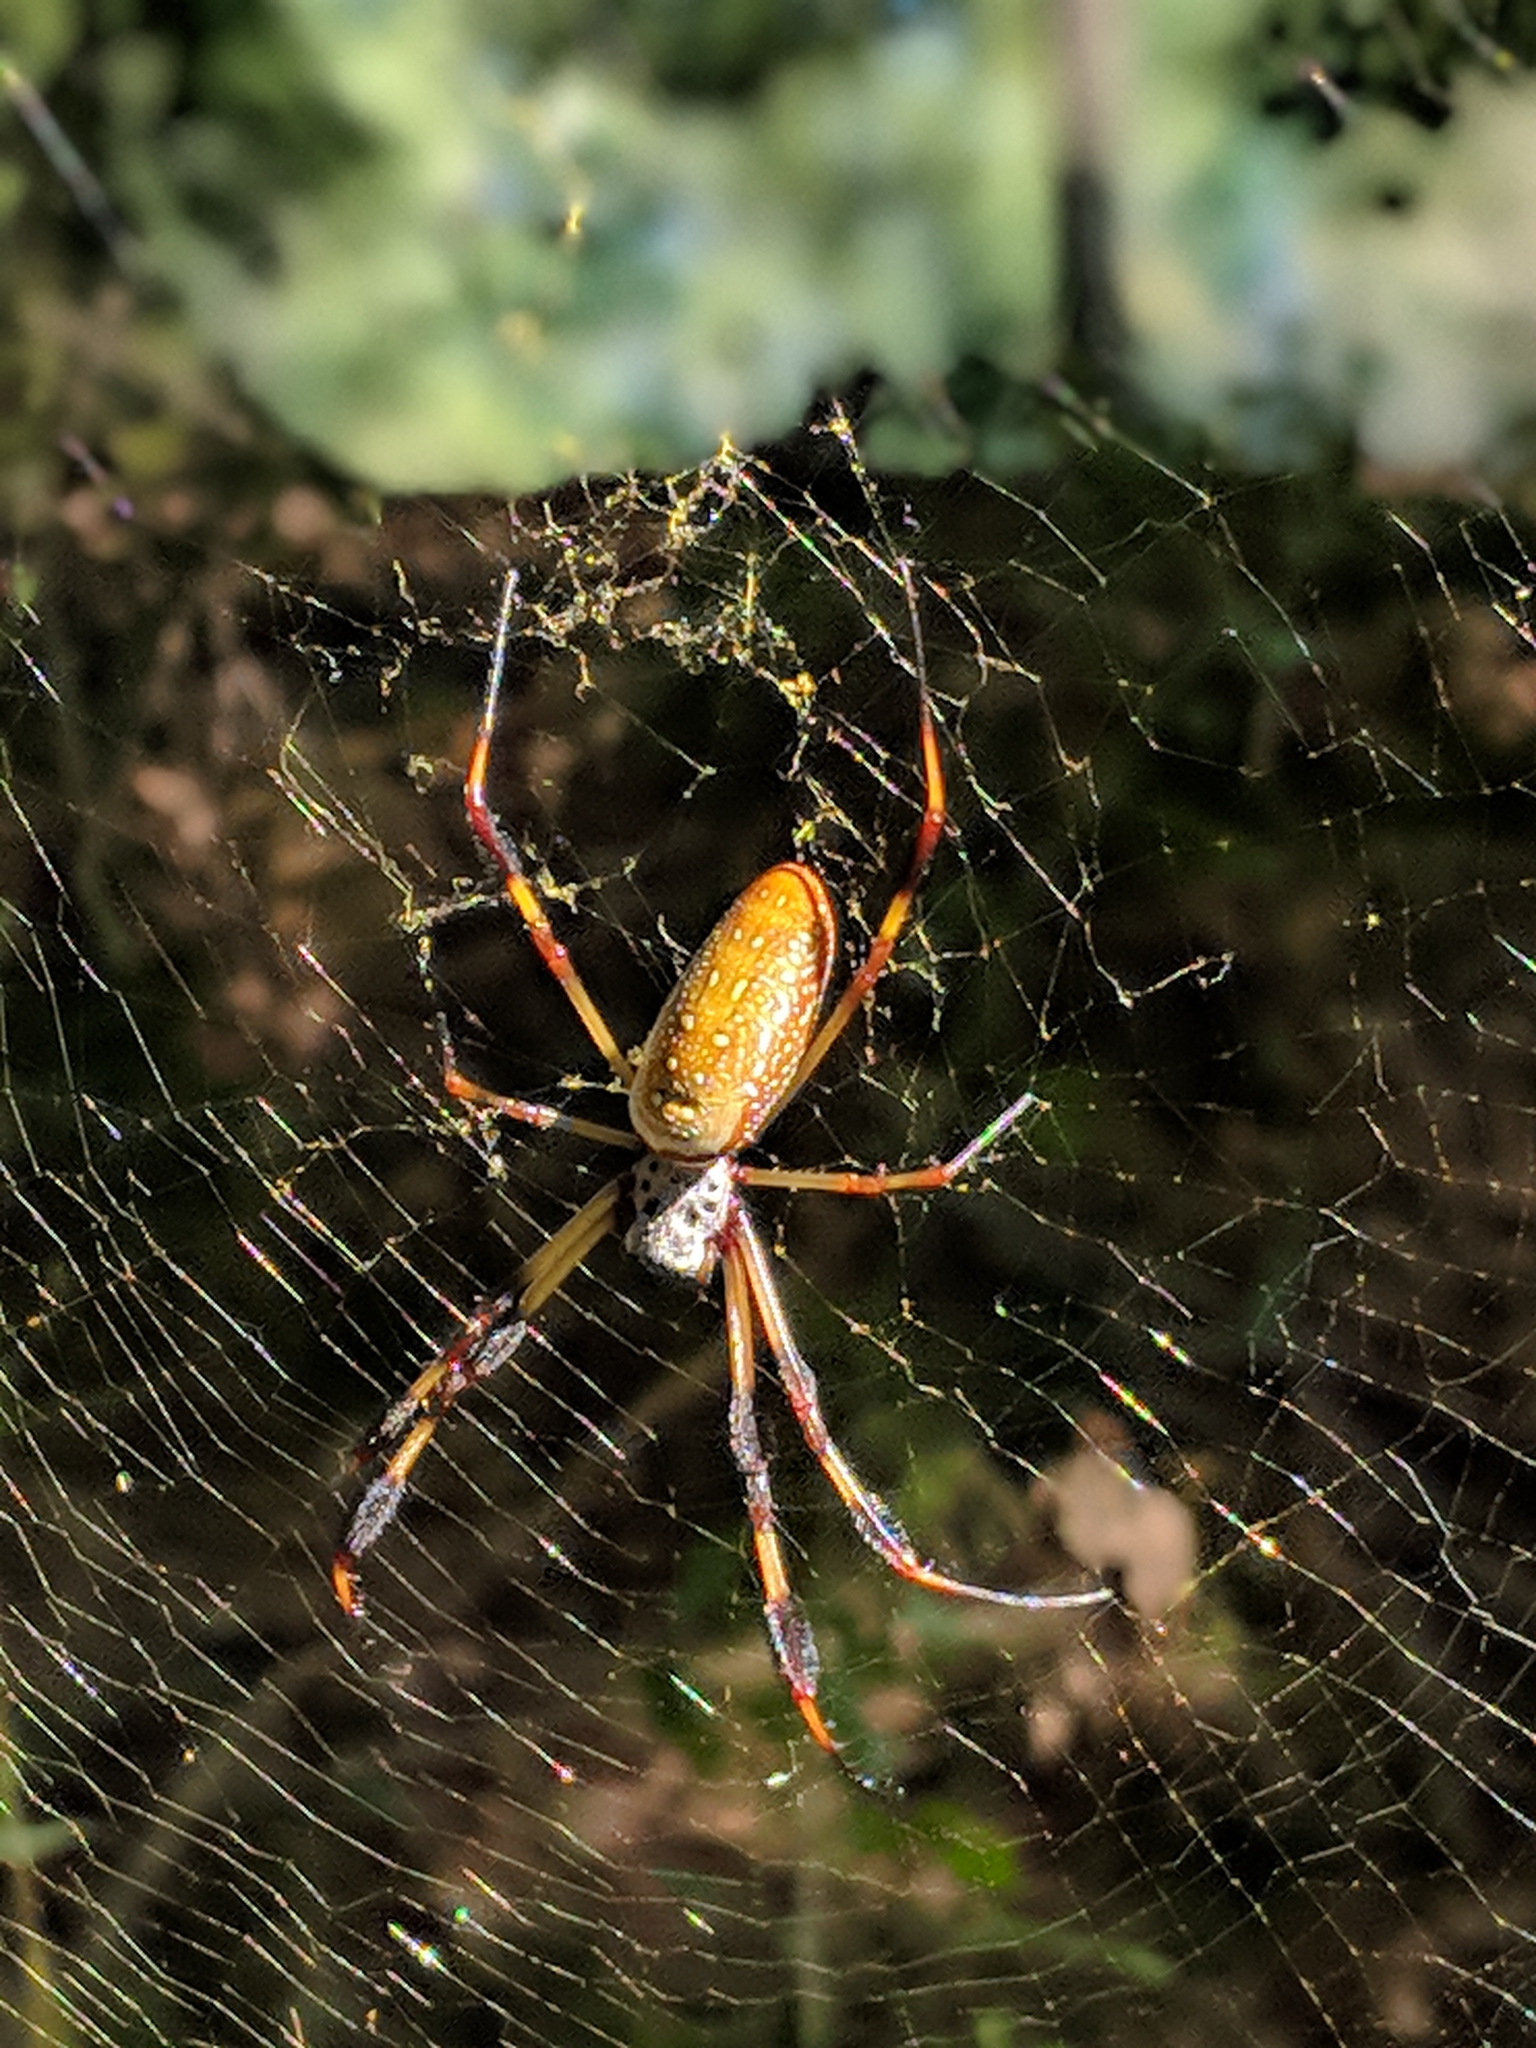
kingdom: Animalia
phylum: Arthropoda
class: Arachnida
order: Araneae
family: Araneidae
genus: Trichonephila
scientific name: Trichonephila clavipes
